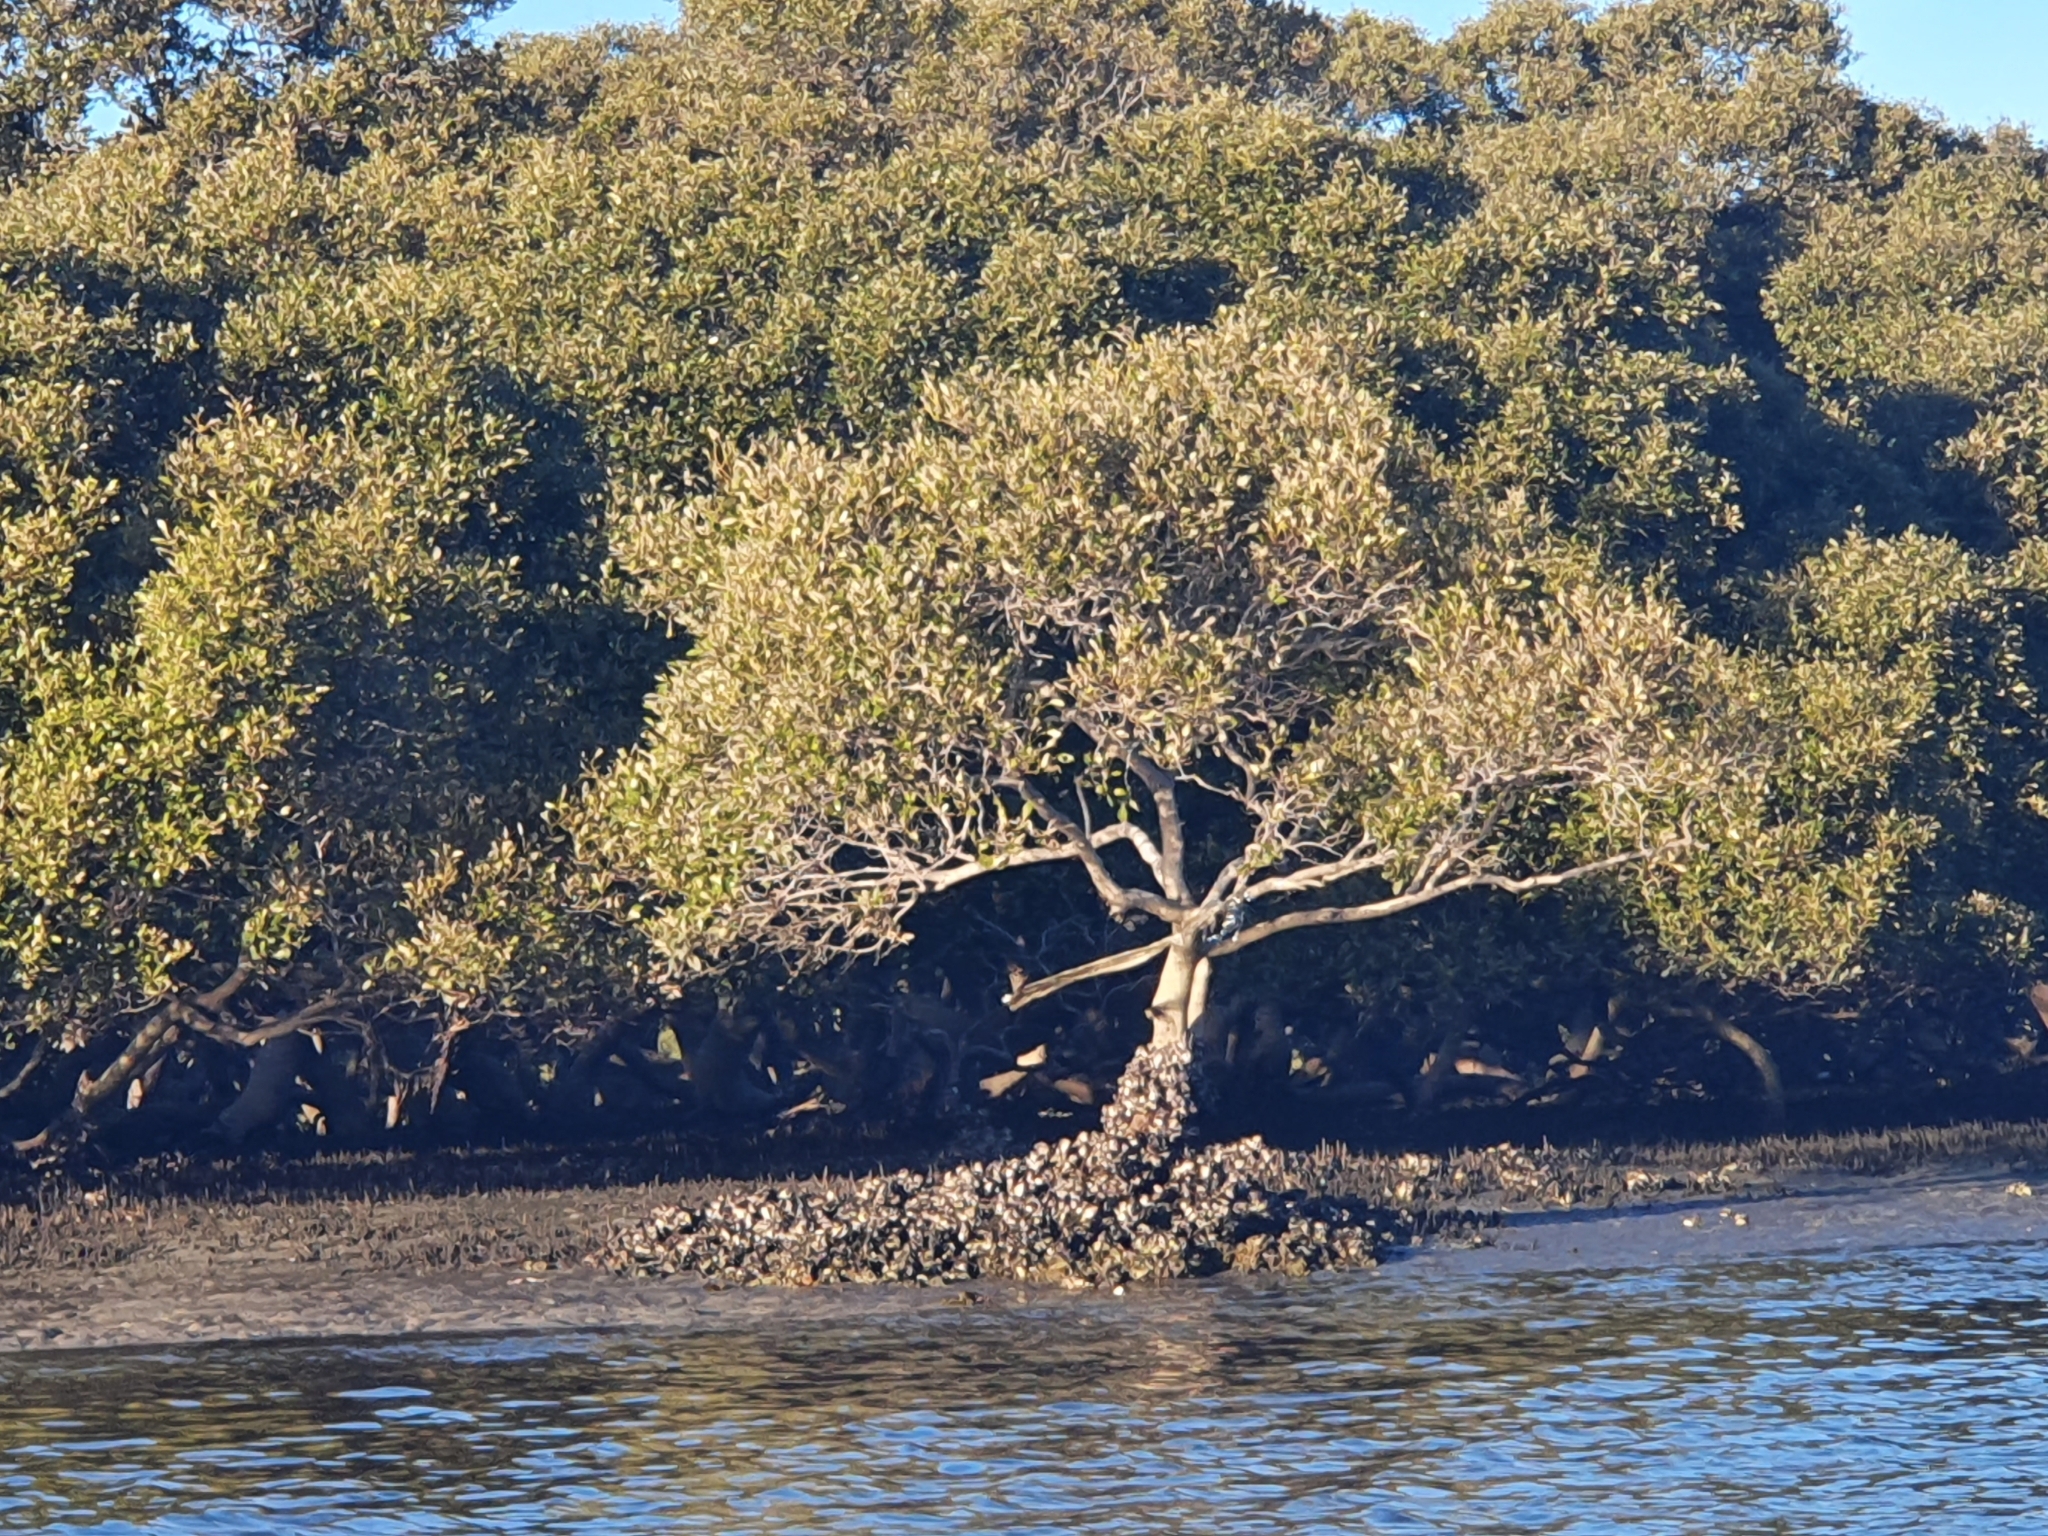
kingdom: Plantae
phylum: Tracheophyta
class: Magnoliopsida
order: Lamiales
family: Acanthaceae
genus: Avicennia
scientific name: Avicennia marina
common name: Gray mangrove
